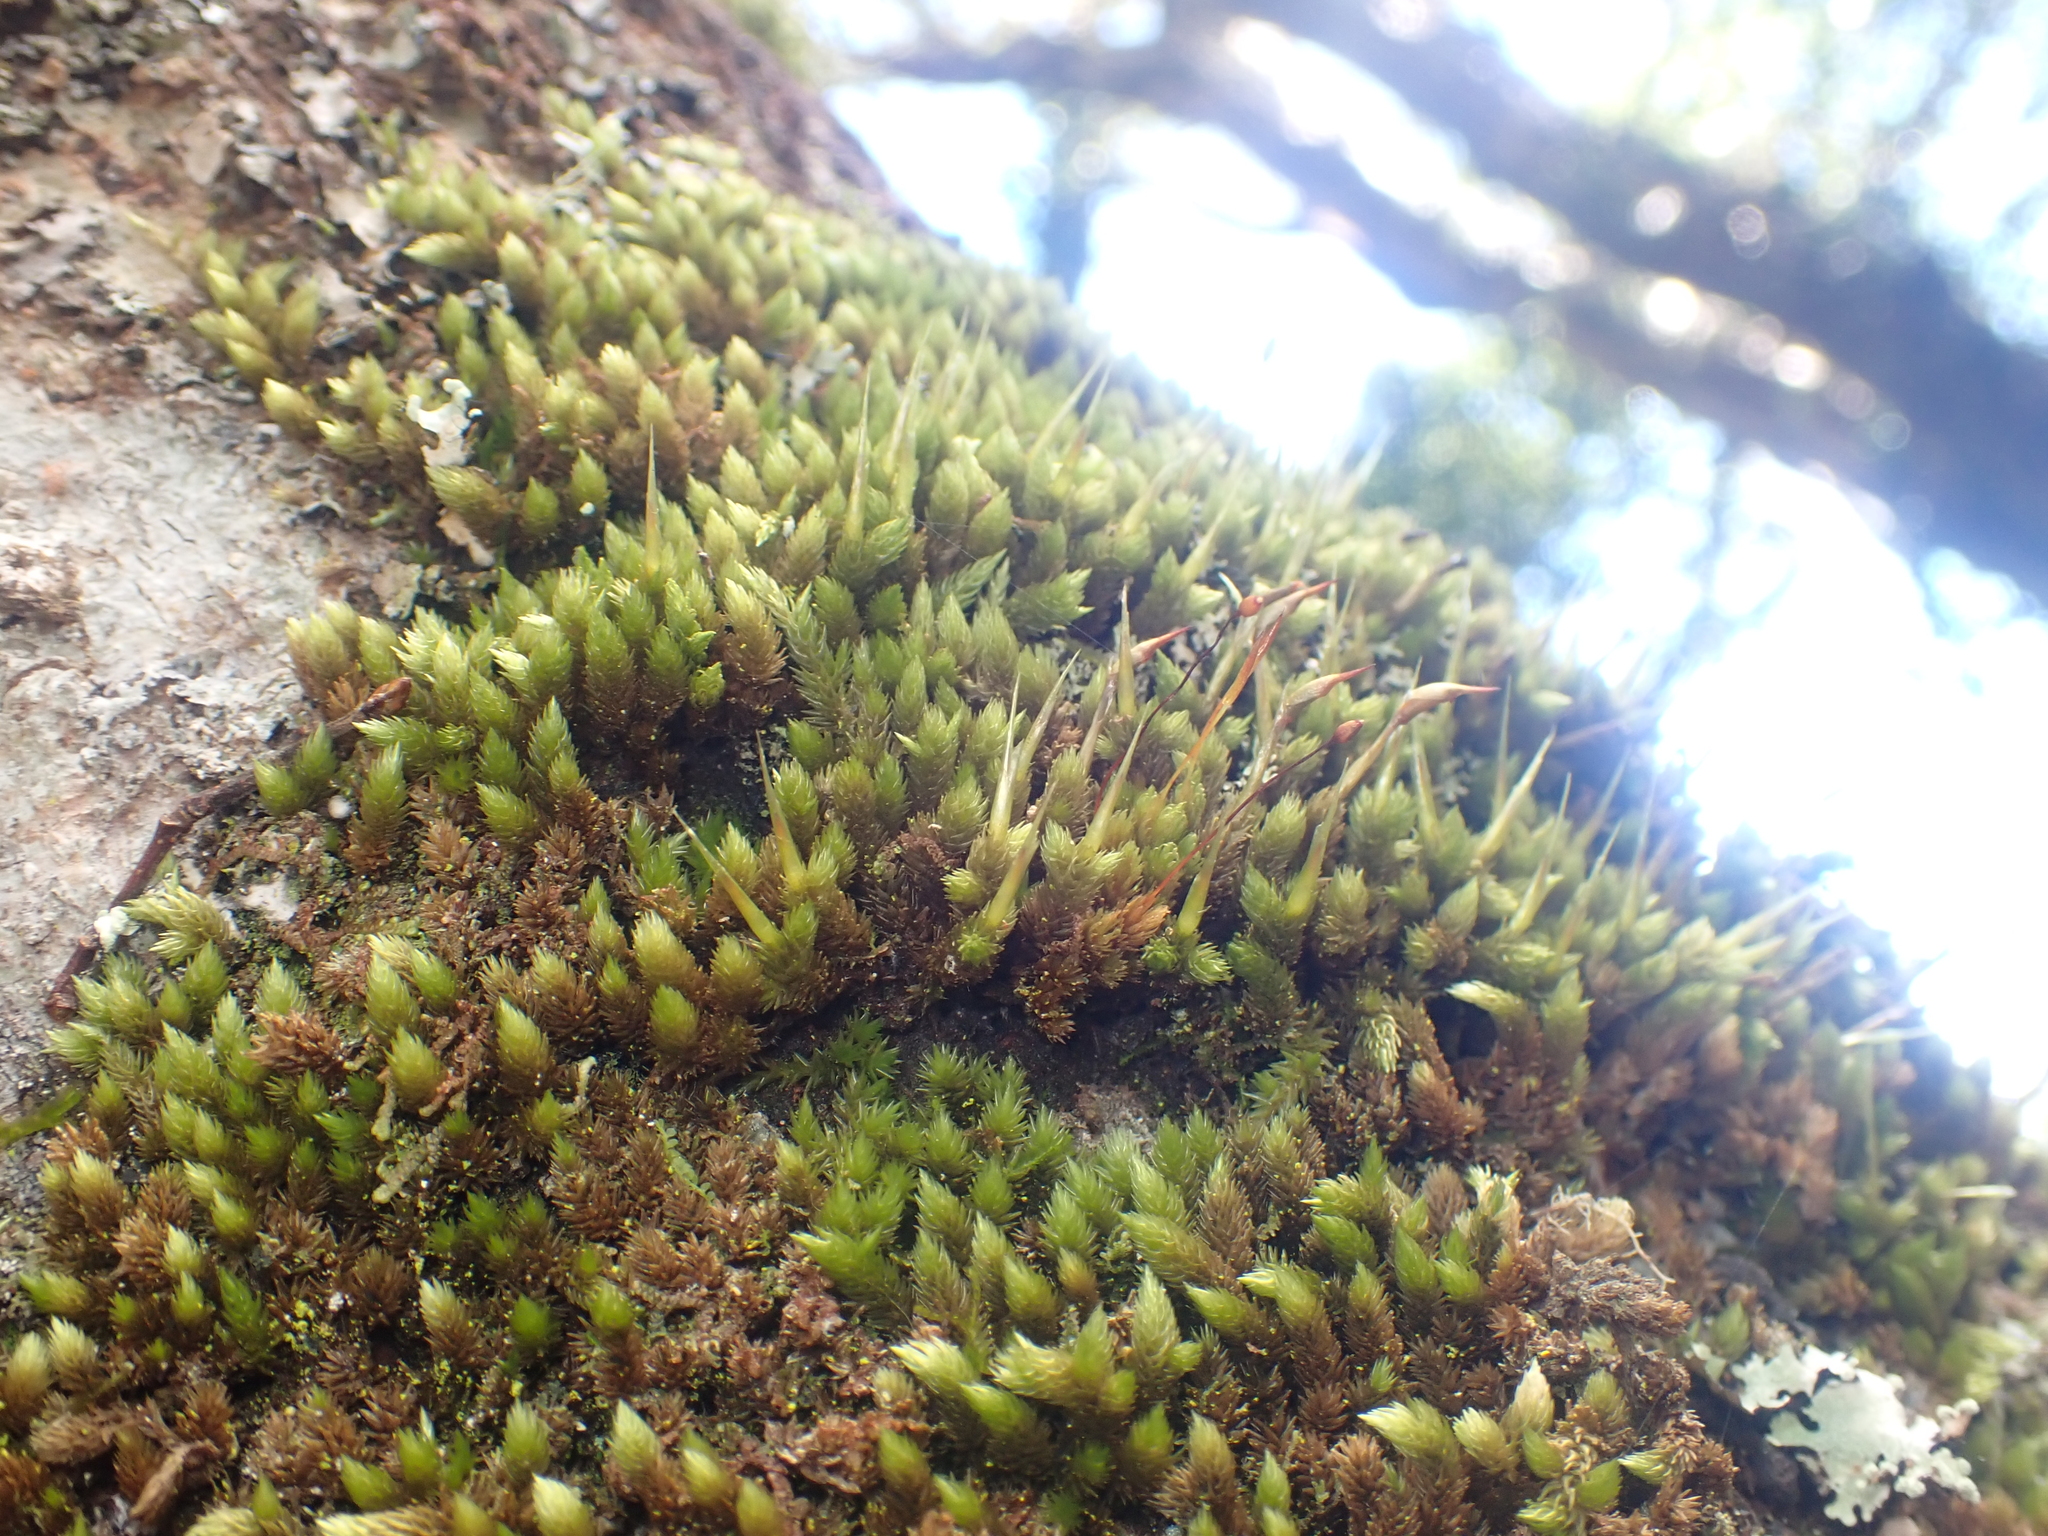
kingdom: Plantae
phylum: Bryophyta
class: Bryopsida
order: Dicranales
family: Dicranaceae
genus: Dicnemon
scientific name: Dicnemon calycinum
